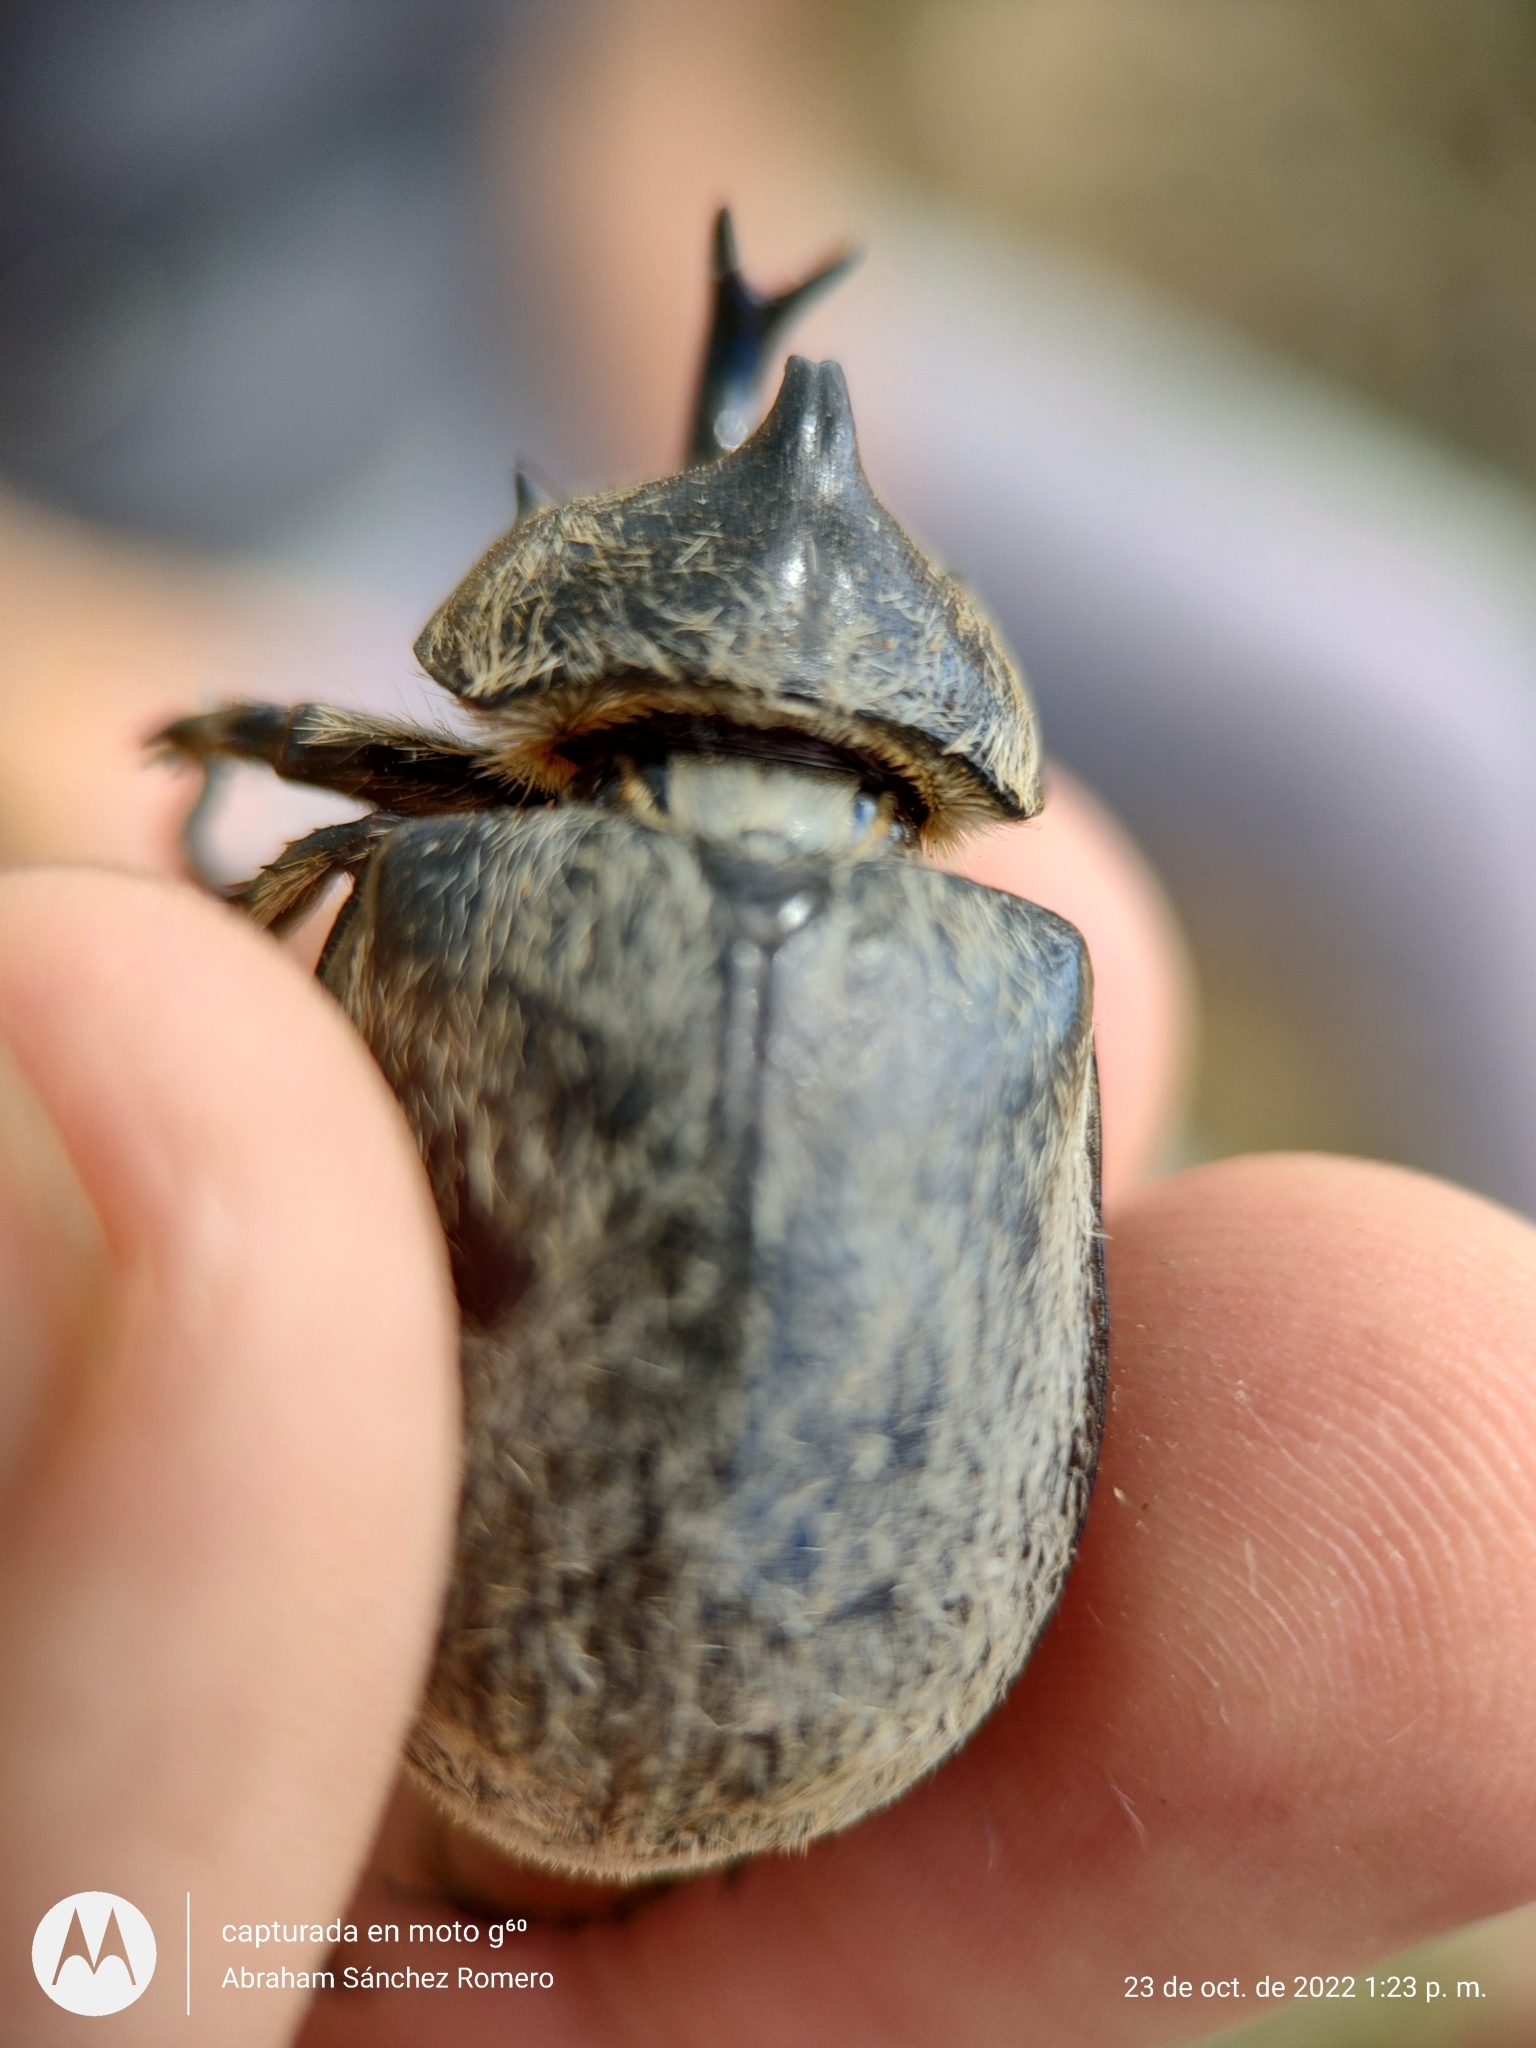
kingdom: Animalia
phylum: Arthropoda
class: Insecta
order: Coleoptera
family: Scarabaeidae
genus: Megasoma
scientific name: Megasoma thersites
